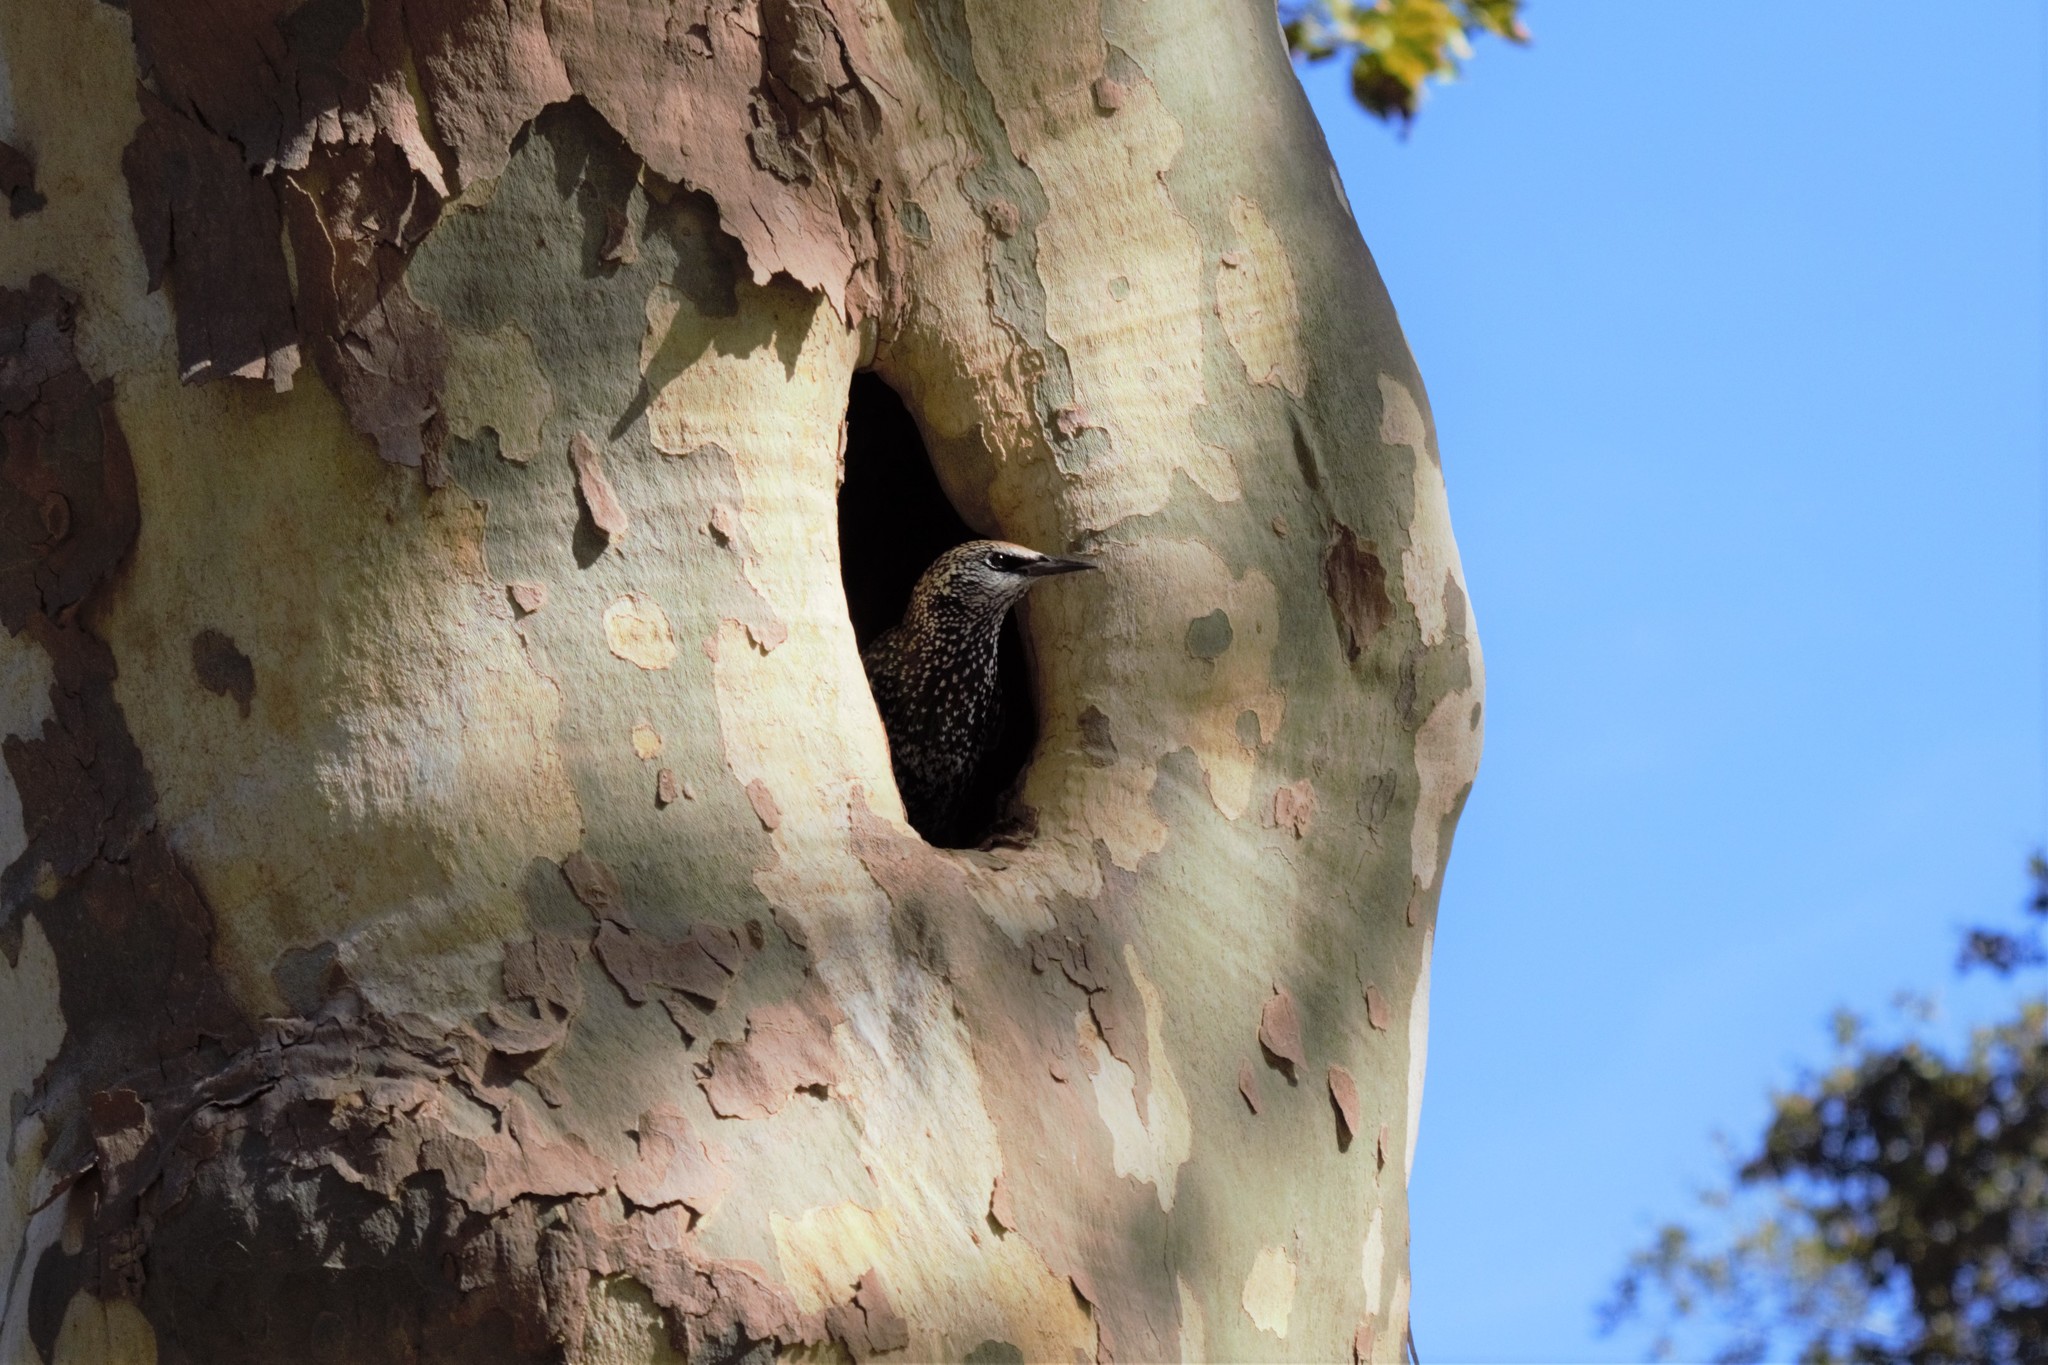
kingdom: Animalia
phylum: Chordata
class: Aves
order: Passeriformes
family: Sturnidae
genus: Sturnus
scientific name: Sturnus vulgaris
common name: Common starling
